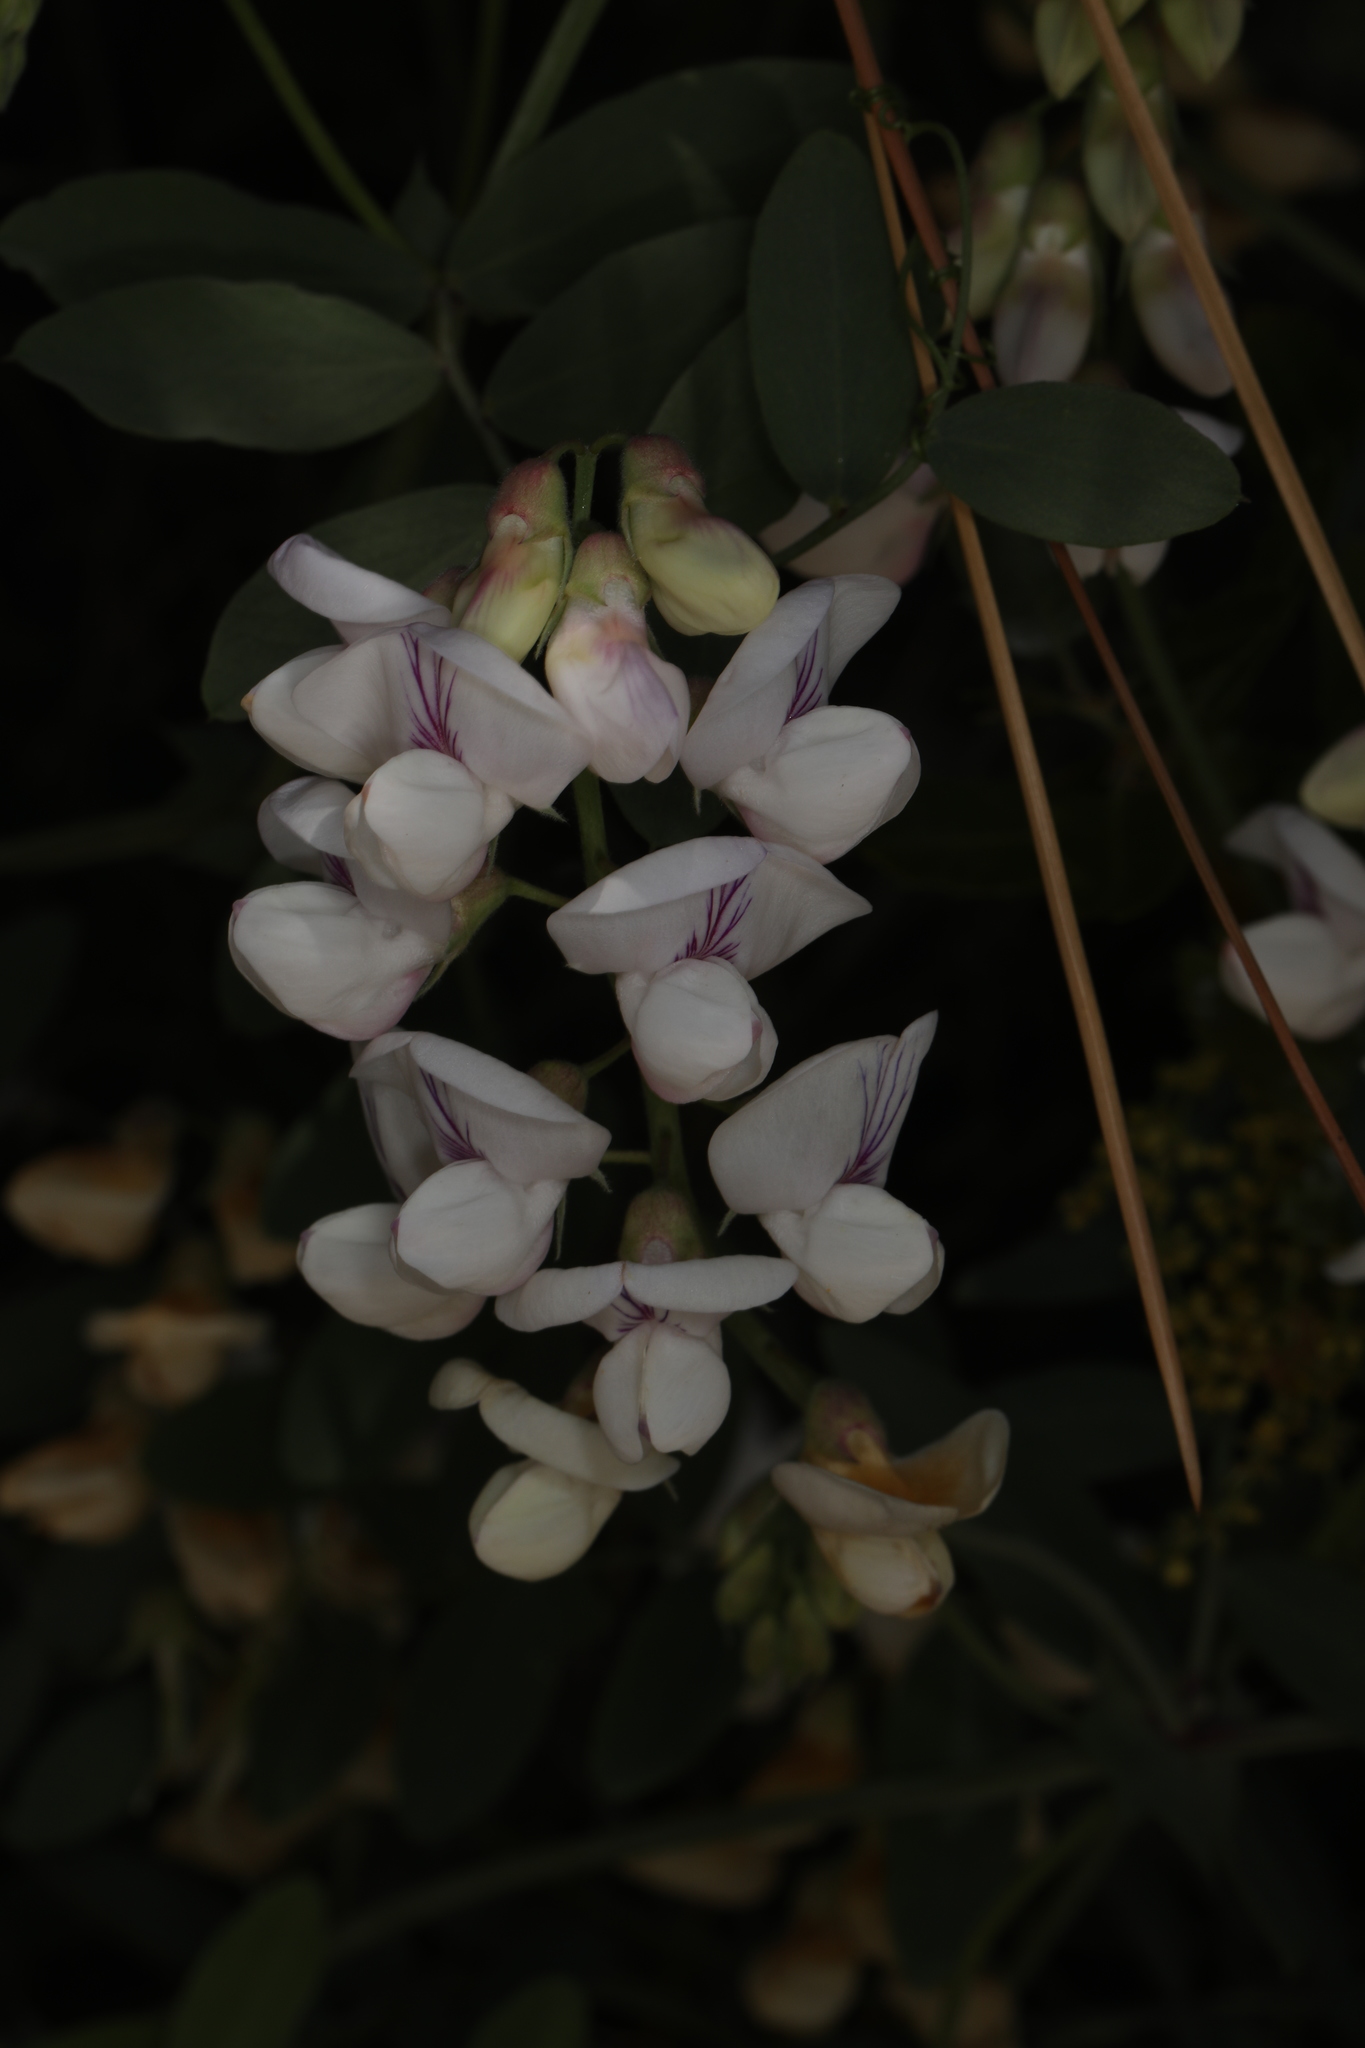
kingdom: Plantae
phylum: Tracheophyta
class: Magnoliopsida
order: Fabales
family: Fabaceae
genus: Lathyrus
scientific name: Lathyrus vestitus
